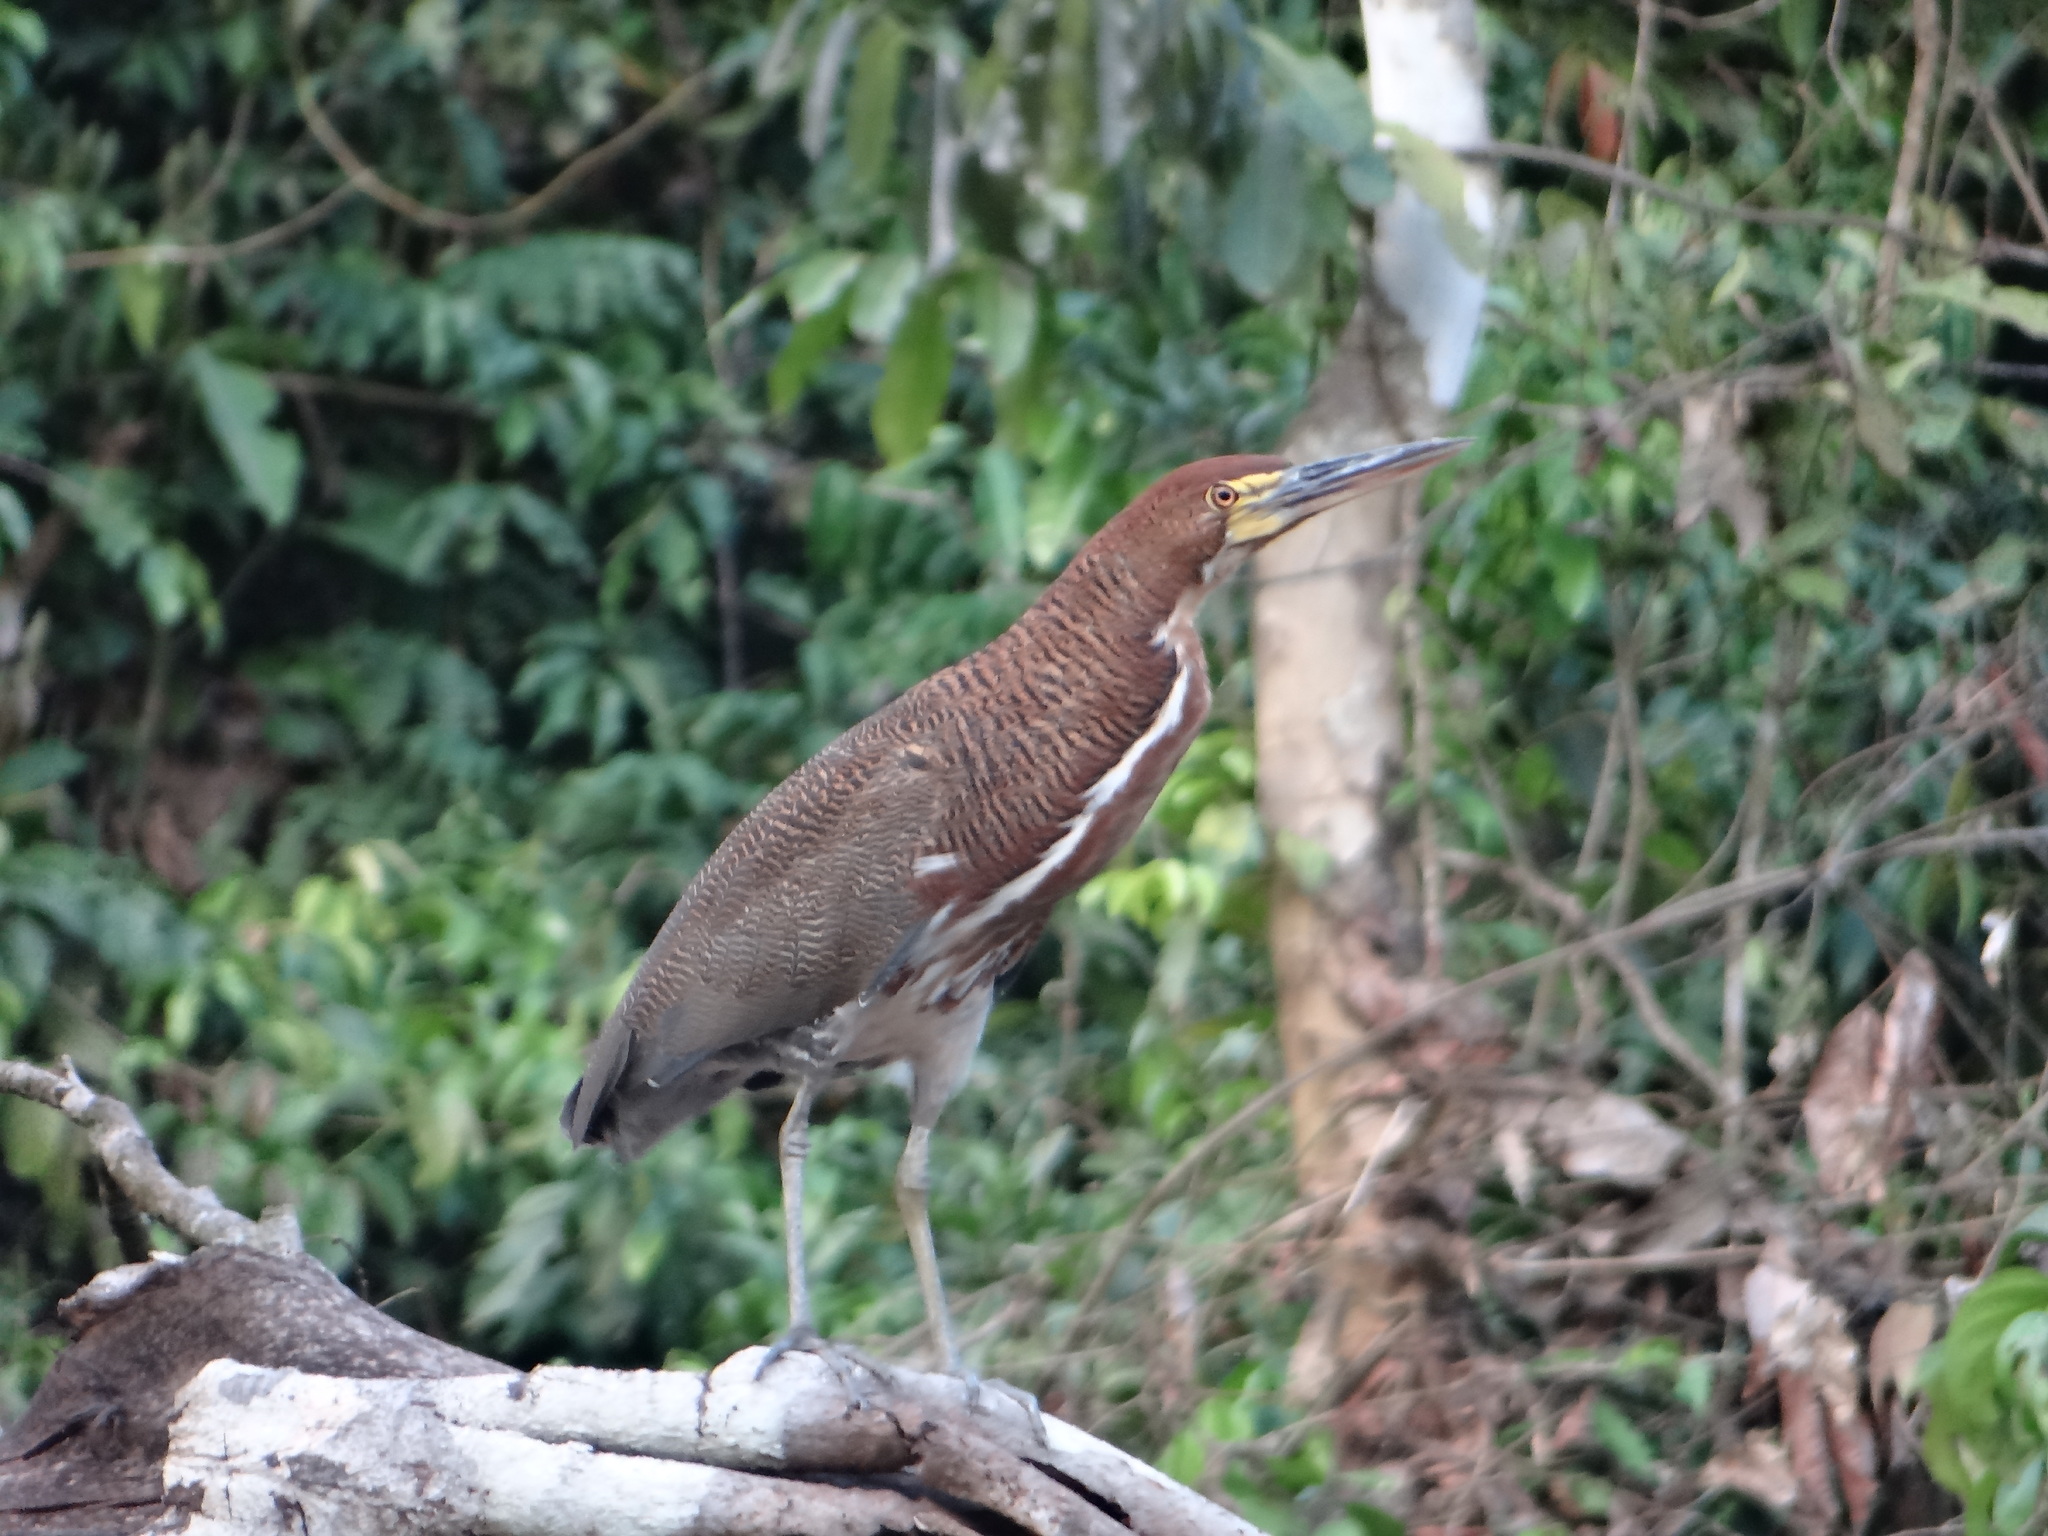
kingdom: Animalia
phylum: Chordata
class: Aves
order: Pelecaniformes
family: Ardeidae
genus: Tigrisoma
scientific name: Tigrisoma lineatum
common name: Rufescent tiger-heron
